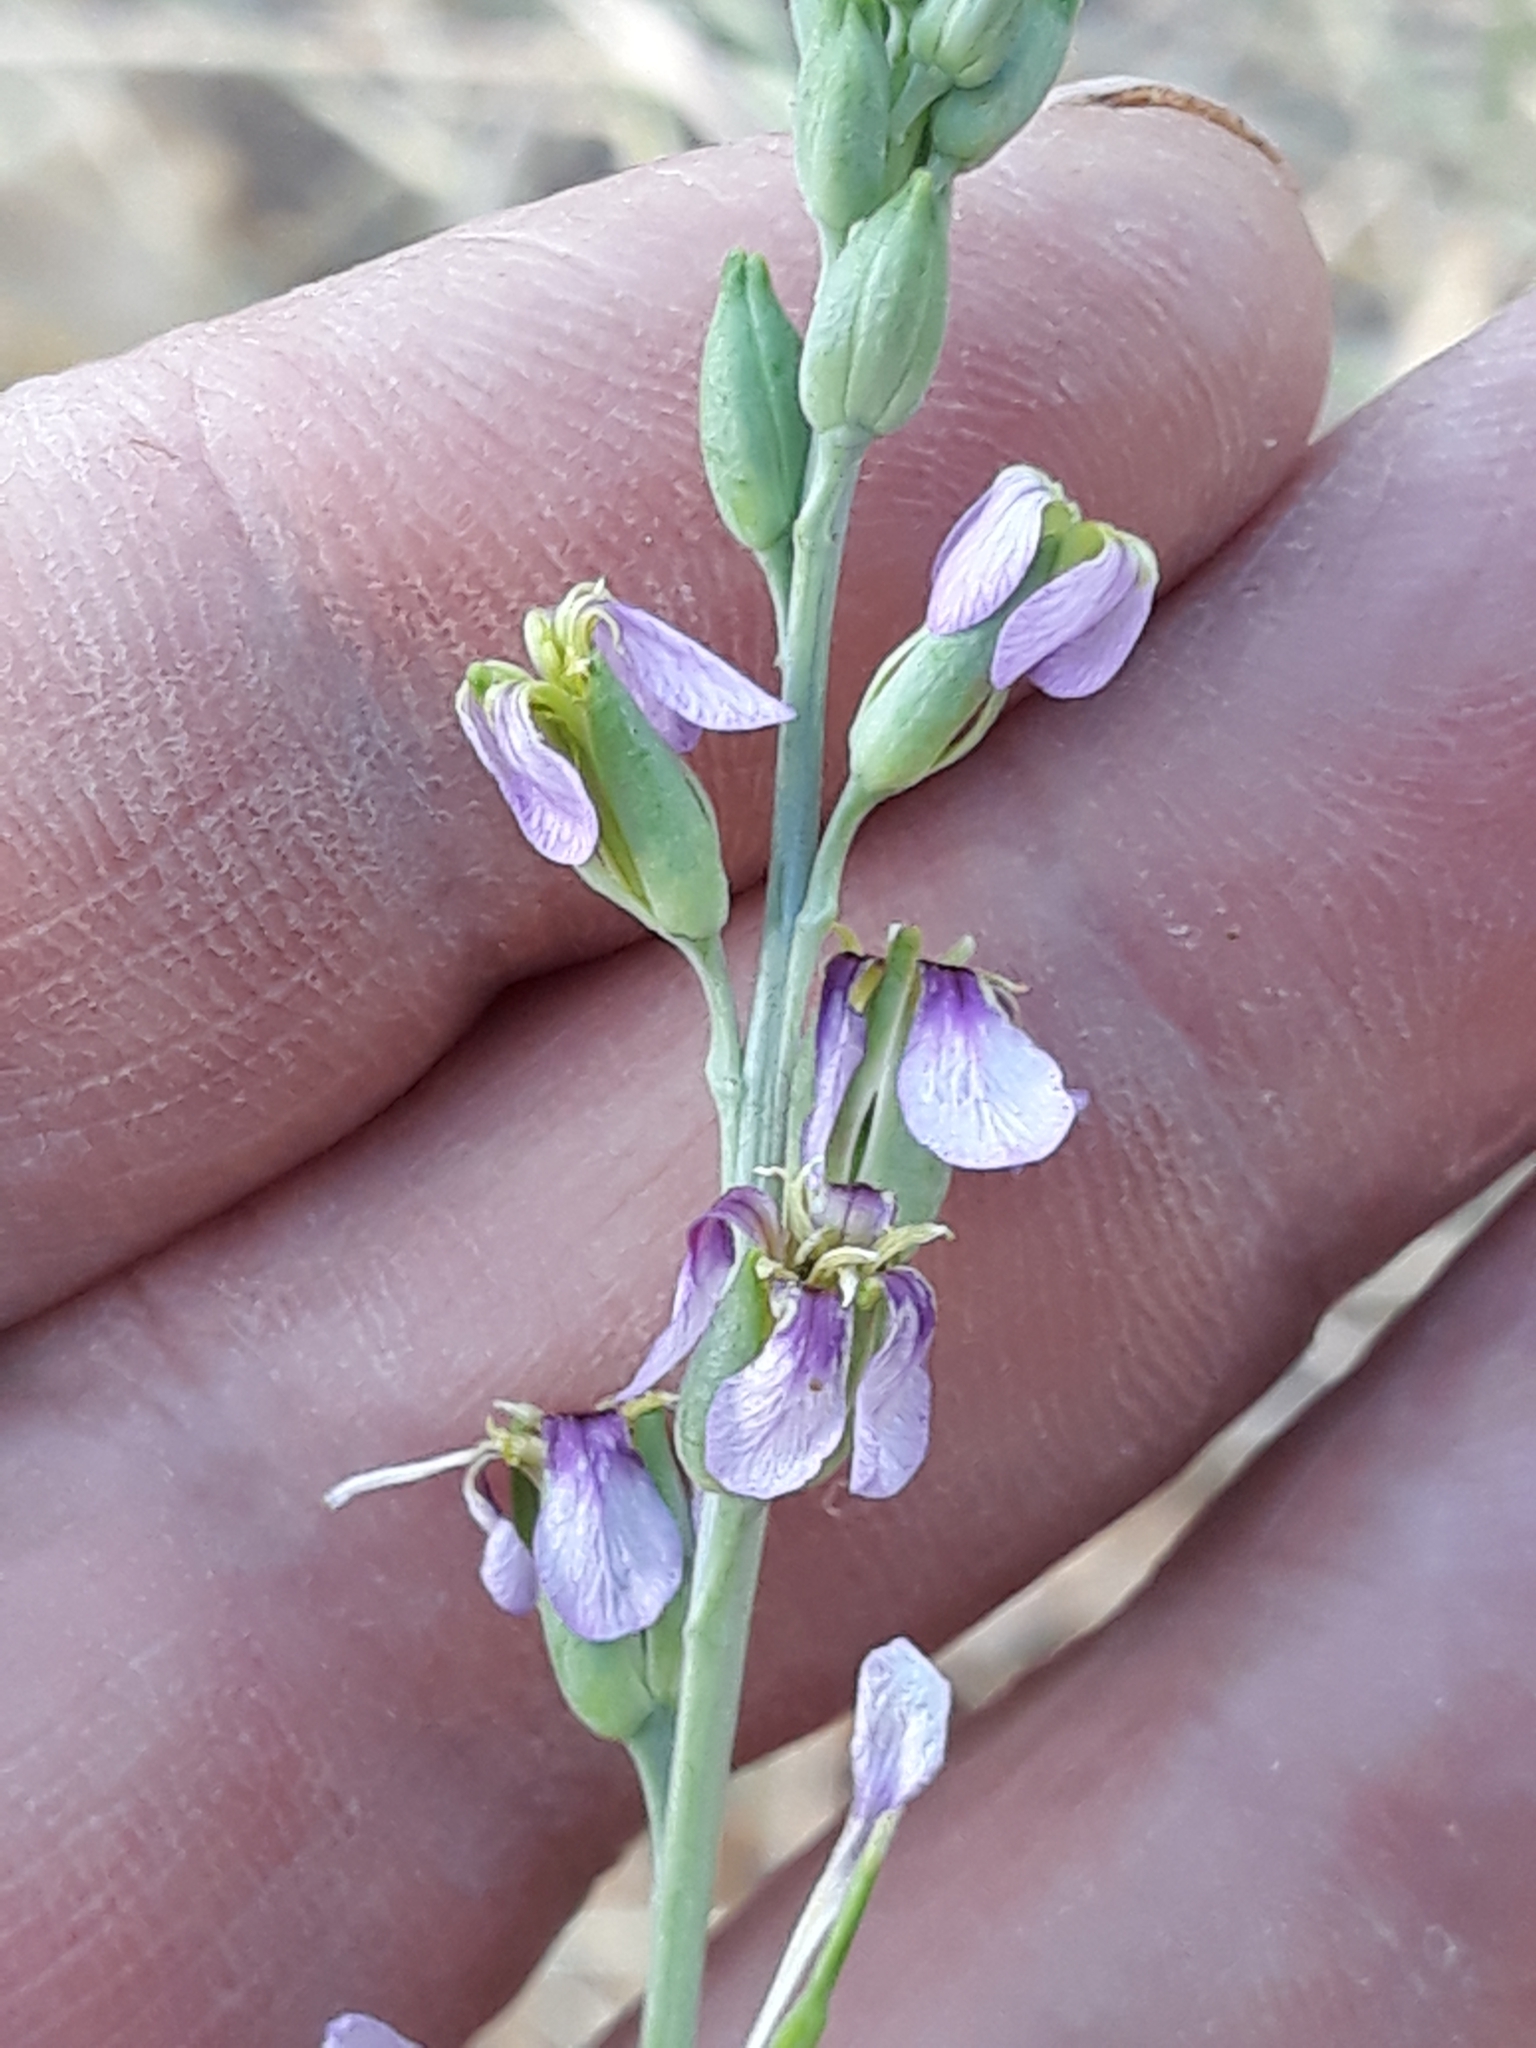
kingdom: Plantae
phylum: Tracheophyta
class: Magnoliopsida
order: Brassicales
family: Brassicaceae
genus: Schouwia
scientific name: Schouwia purpurea
